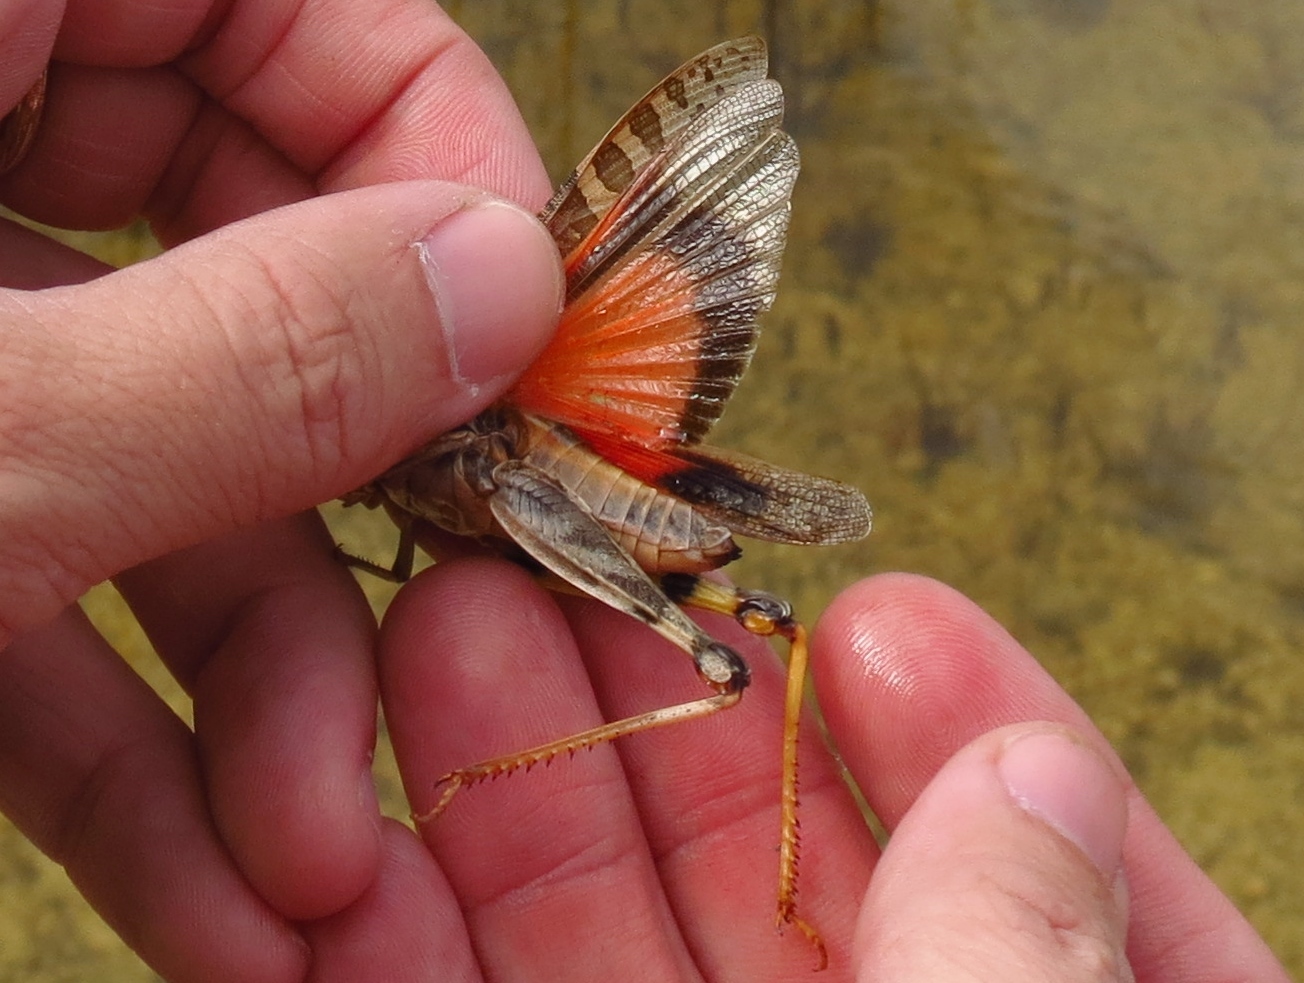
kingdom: Animalia
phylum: Arthropoda
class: Insecta
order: Orthoptera
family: Acrididae
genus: Hippiscus
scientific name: Hippiscus ocelote
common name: Wrinkled grasshopper
